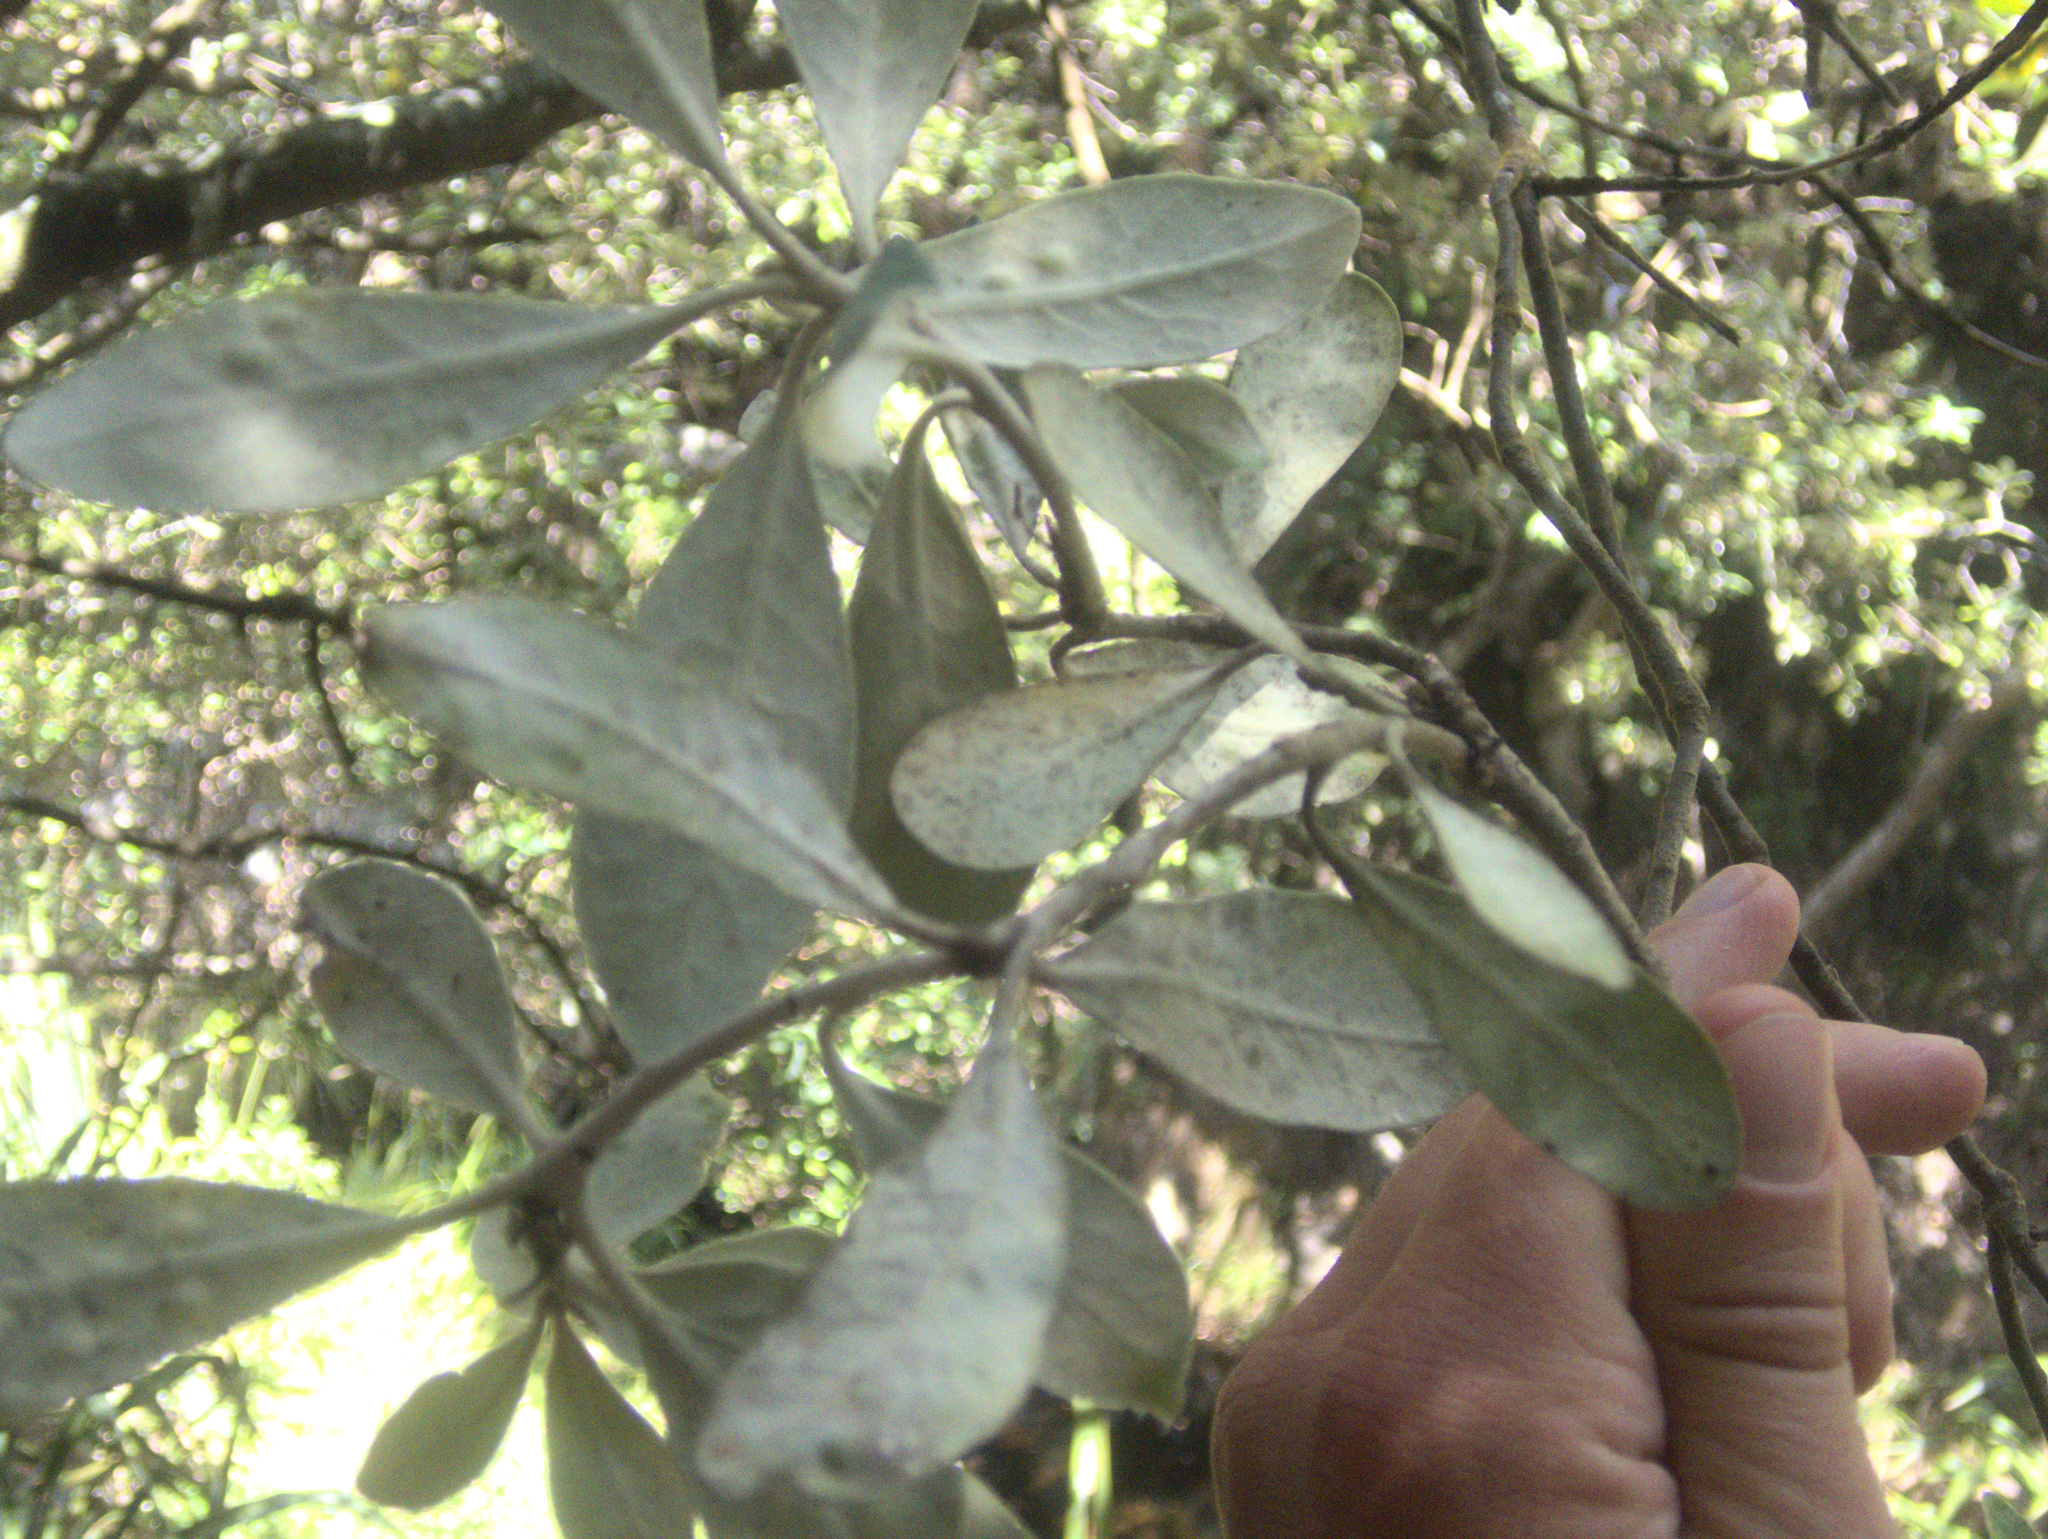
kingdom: Plantae
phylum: Tracheophyta
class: Magnoliopsida
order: Apiales
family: Pittosporaceae
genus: Pittosporum
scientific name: Pittosporum crassifolium
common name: Karo
